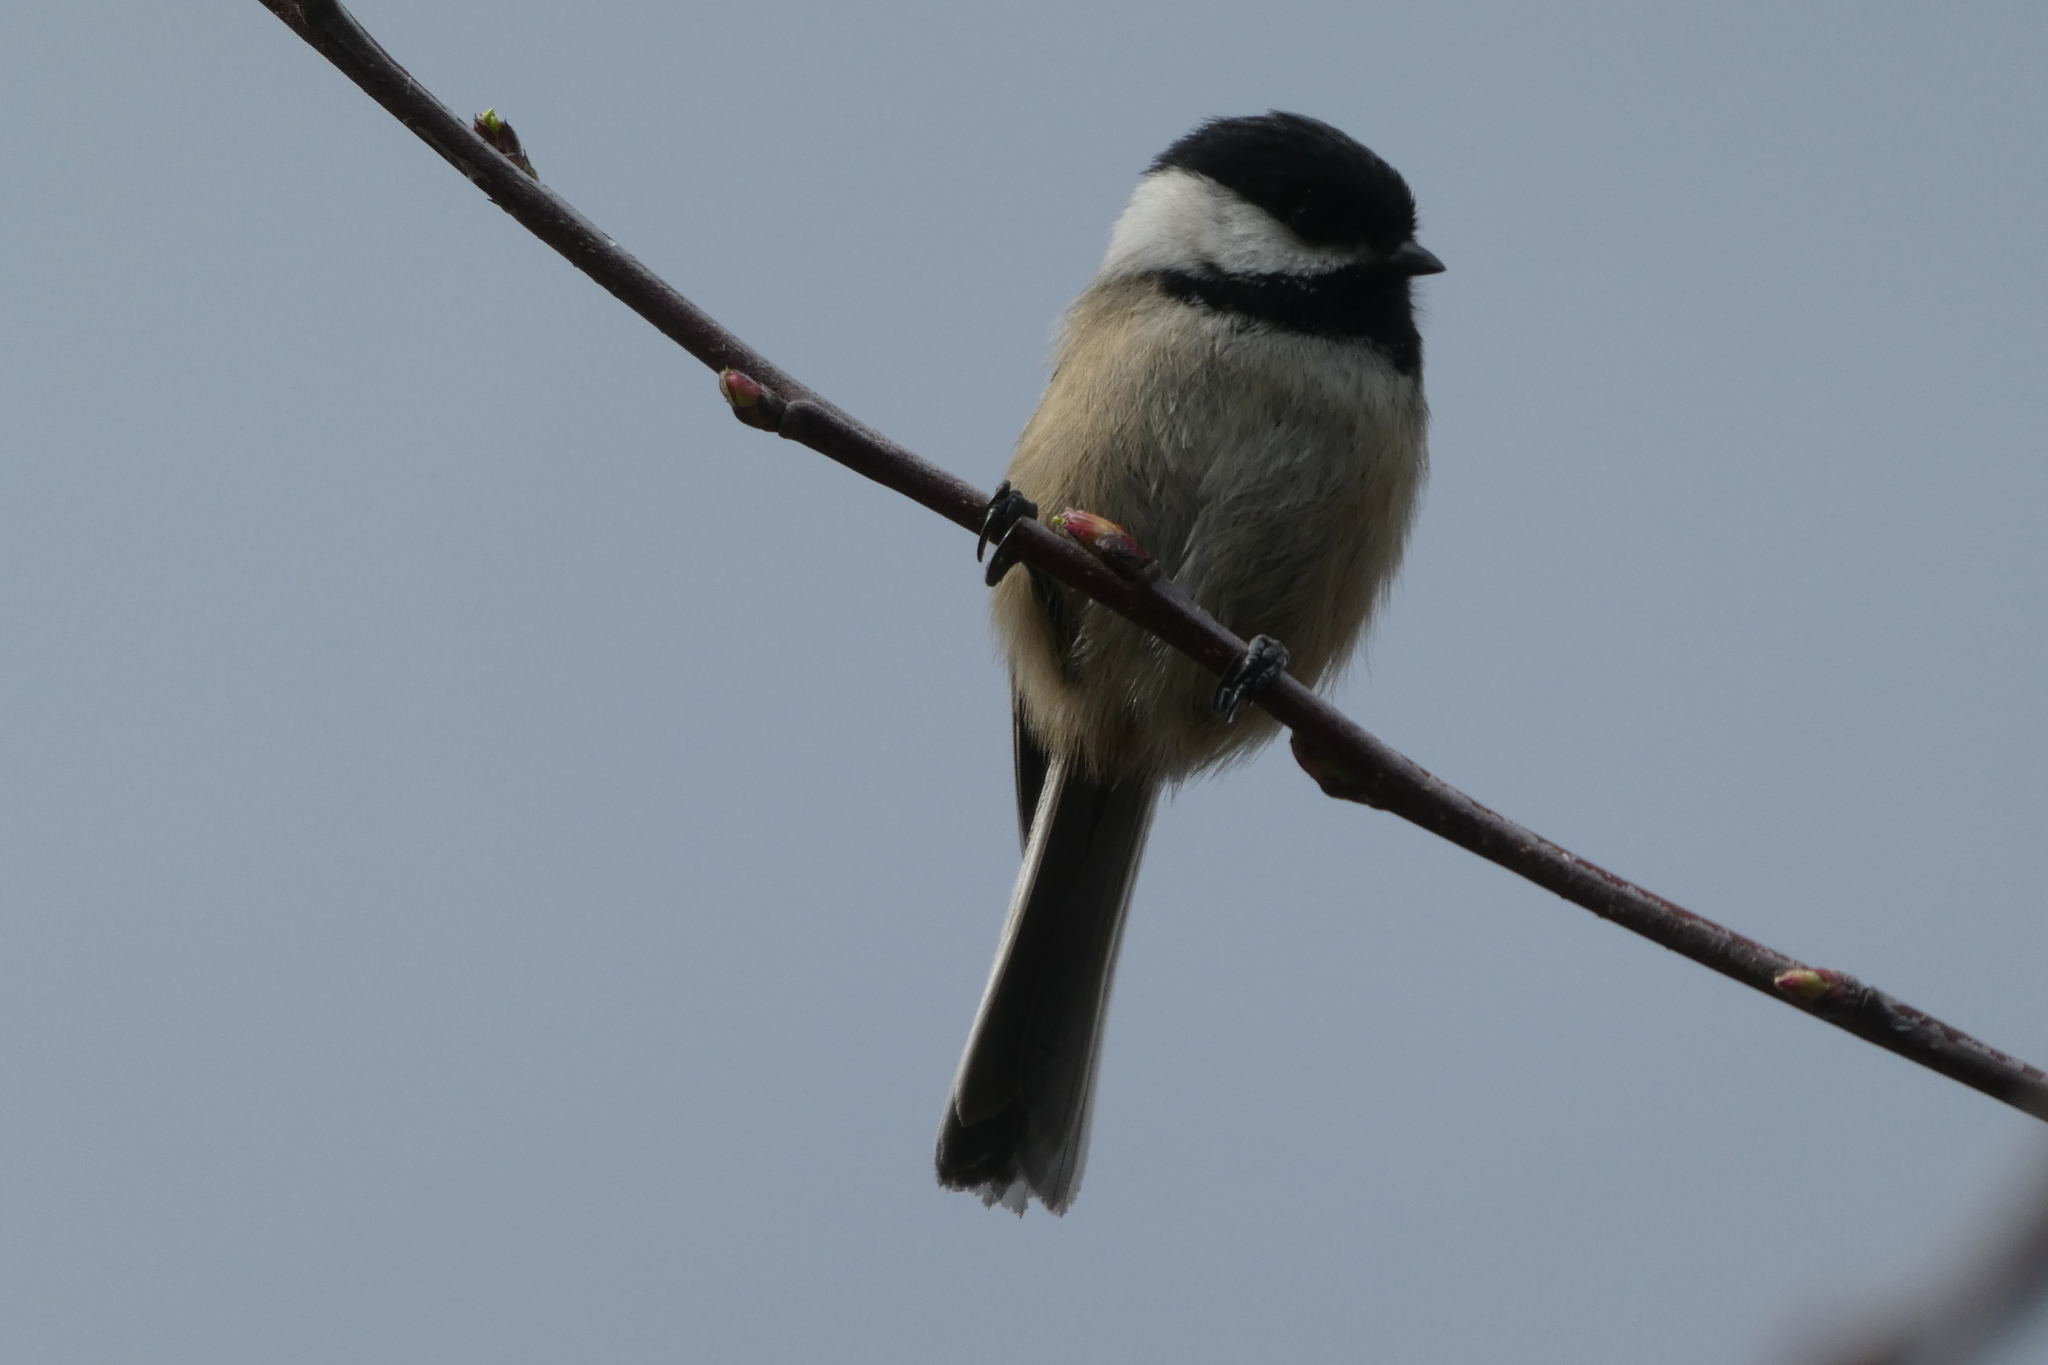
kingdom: Animalia
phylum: Chordata
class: Aves
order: Passeriformes
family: Paridae
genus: Poecile
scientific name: Poecile atricapillus
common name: Black-capped chickadee
